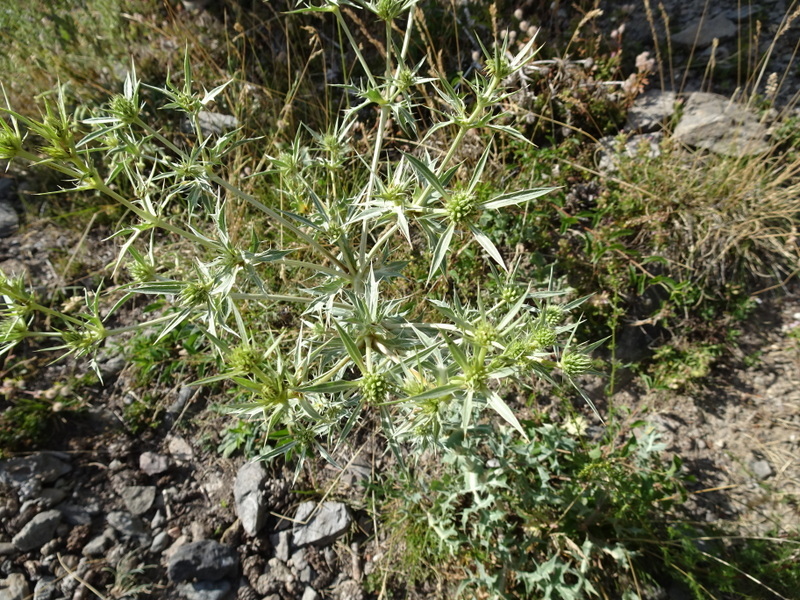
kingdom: Plantae
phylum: Tracheophyta
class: Magnoliopsida
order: Apiales
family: Apiaceae
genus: Eryngium
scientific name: Eryngium campestre
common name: Field eryngo
